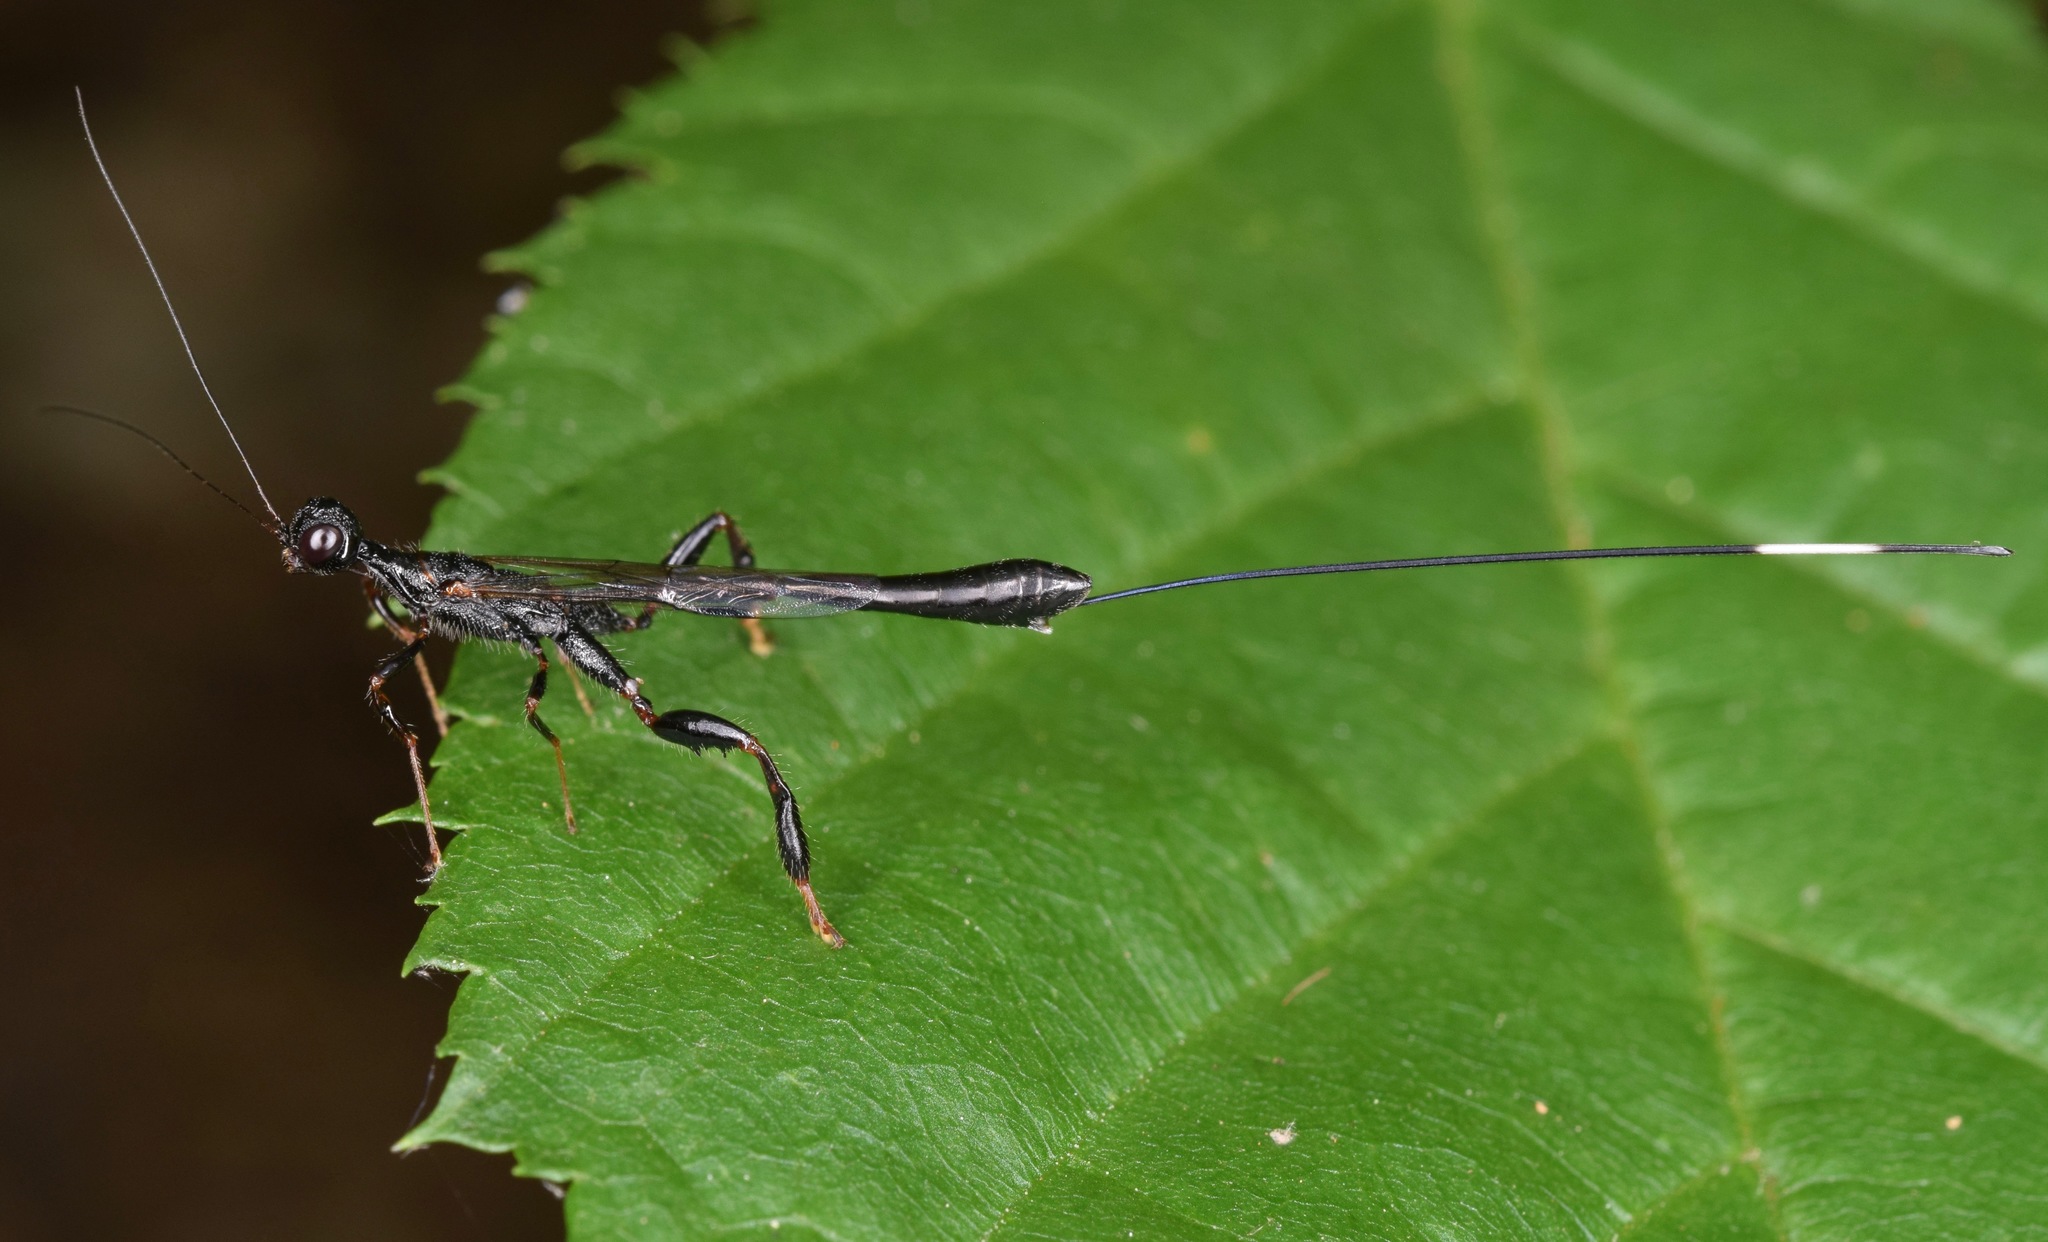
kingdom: Animalia
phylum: Arthropoda
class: Insecta
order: Hymenoptera
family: Stephanidae
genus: Megischus
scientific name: Megischus
